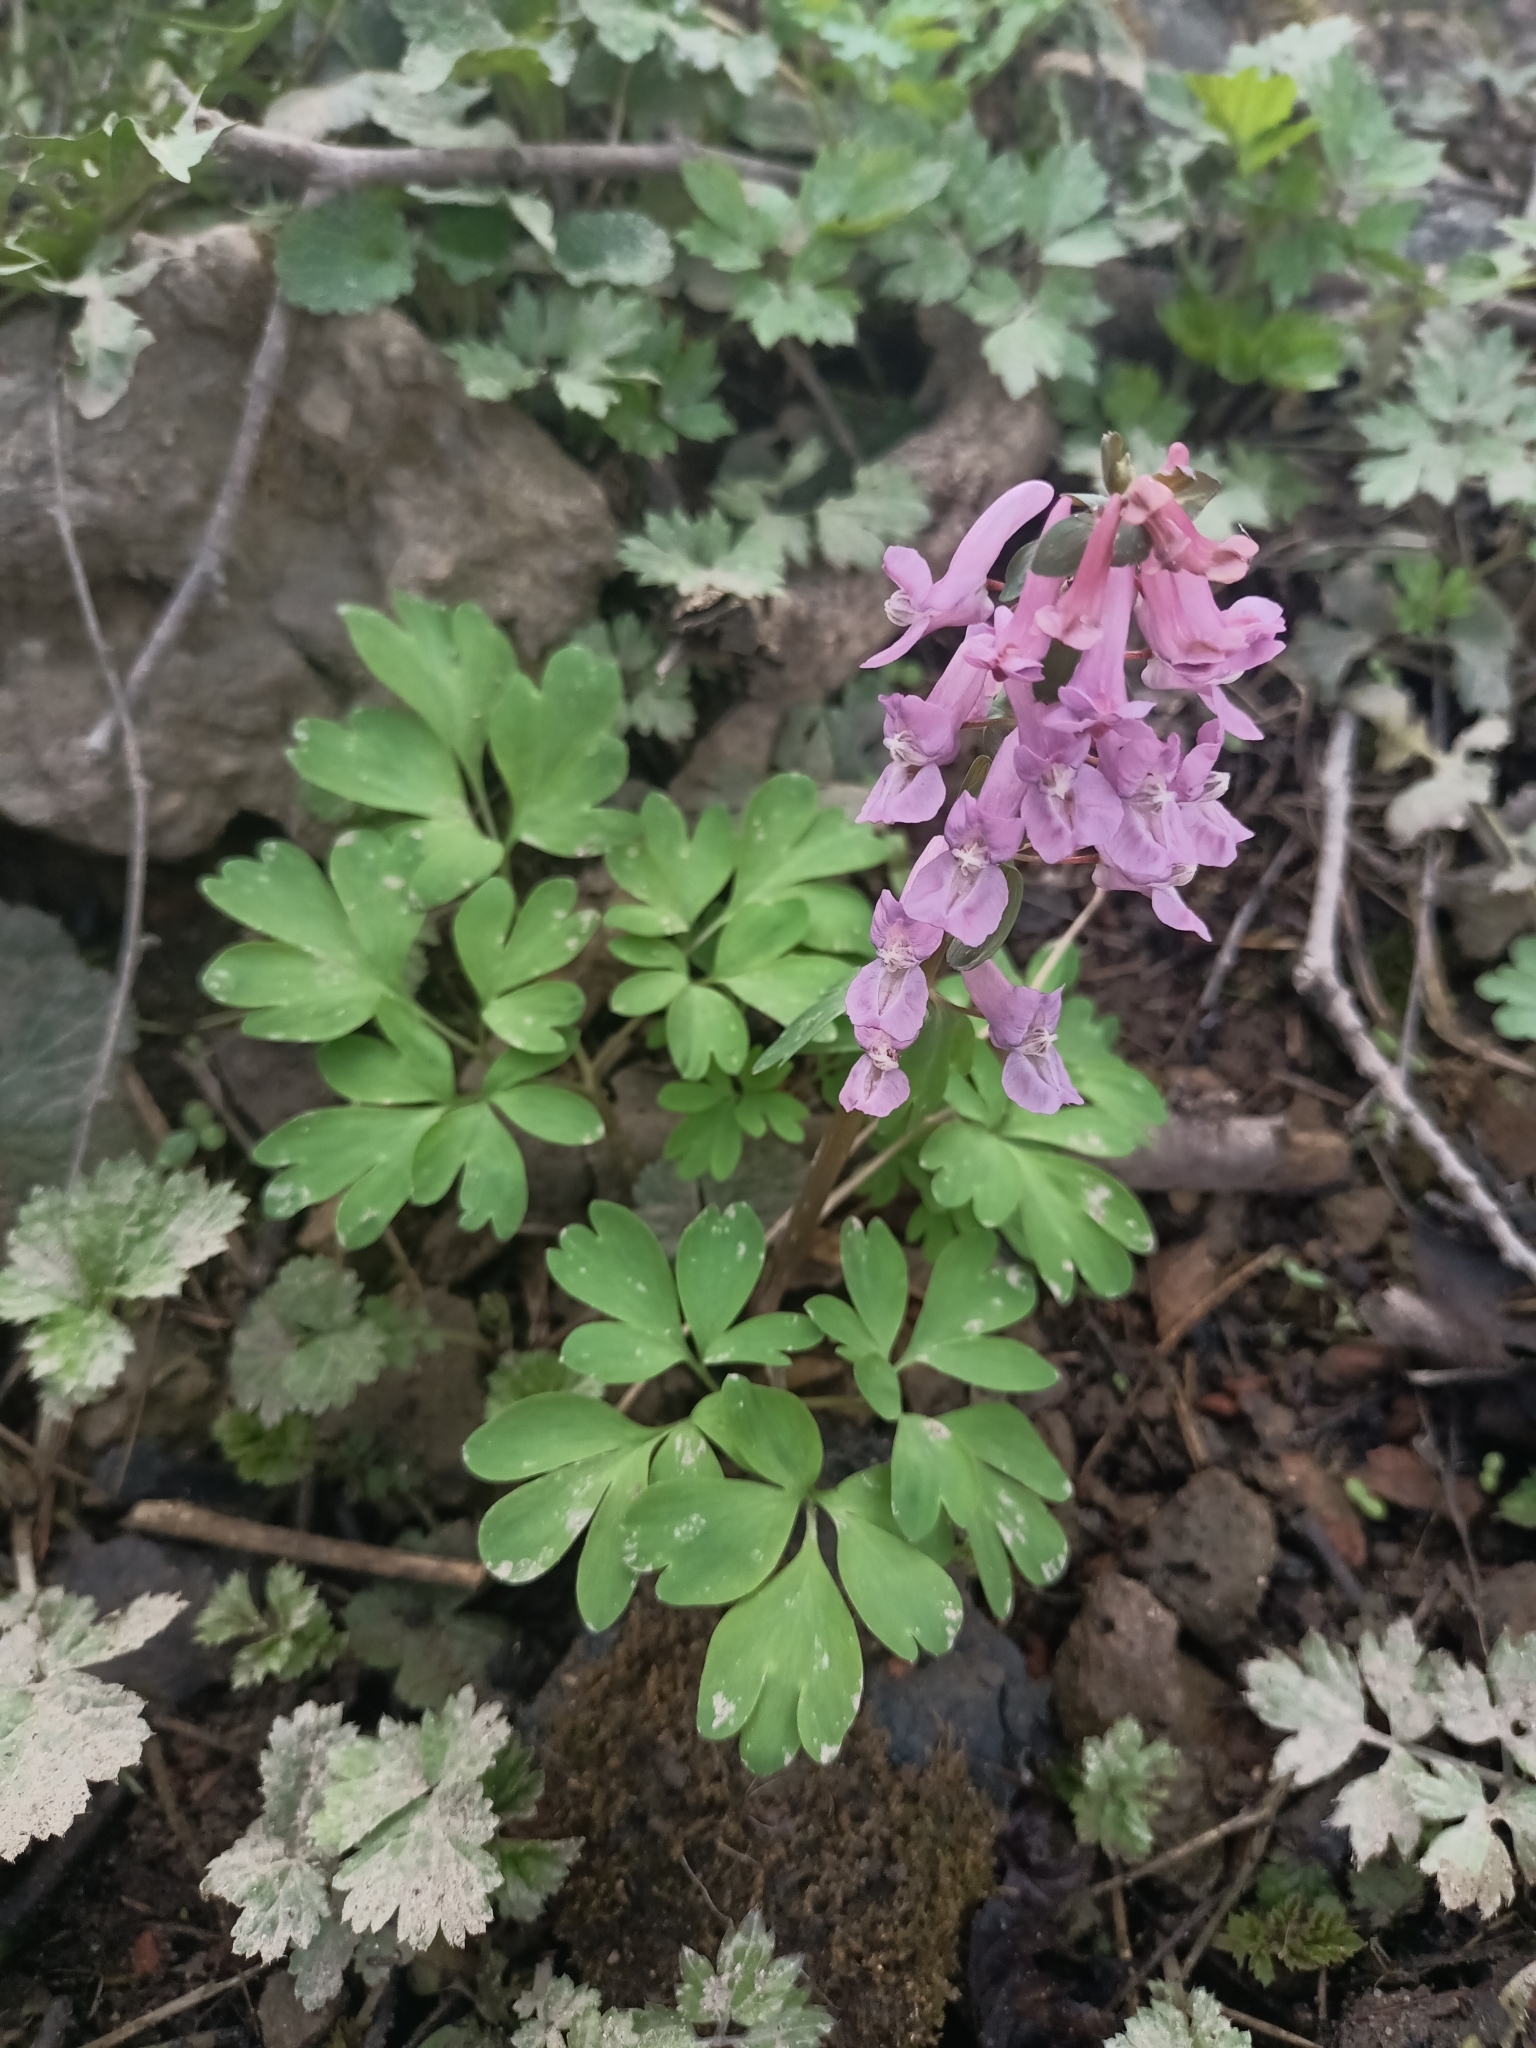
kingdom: Plantae
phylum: Tracheophyta
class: Magnoliopsida
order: Ranunculales
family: Papaveraceae
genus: Corydalis
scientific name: Corydalis solida
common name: Bird-in-a-bush
